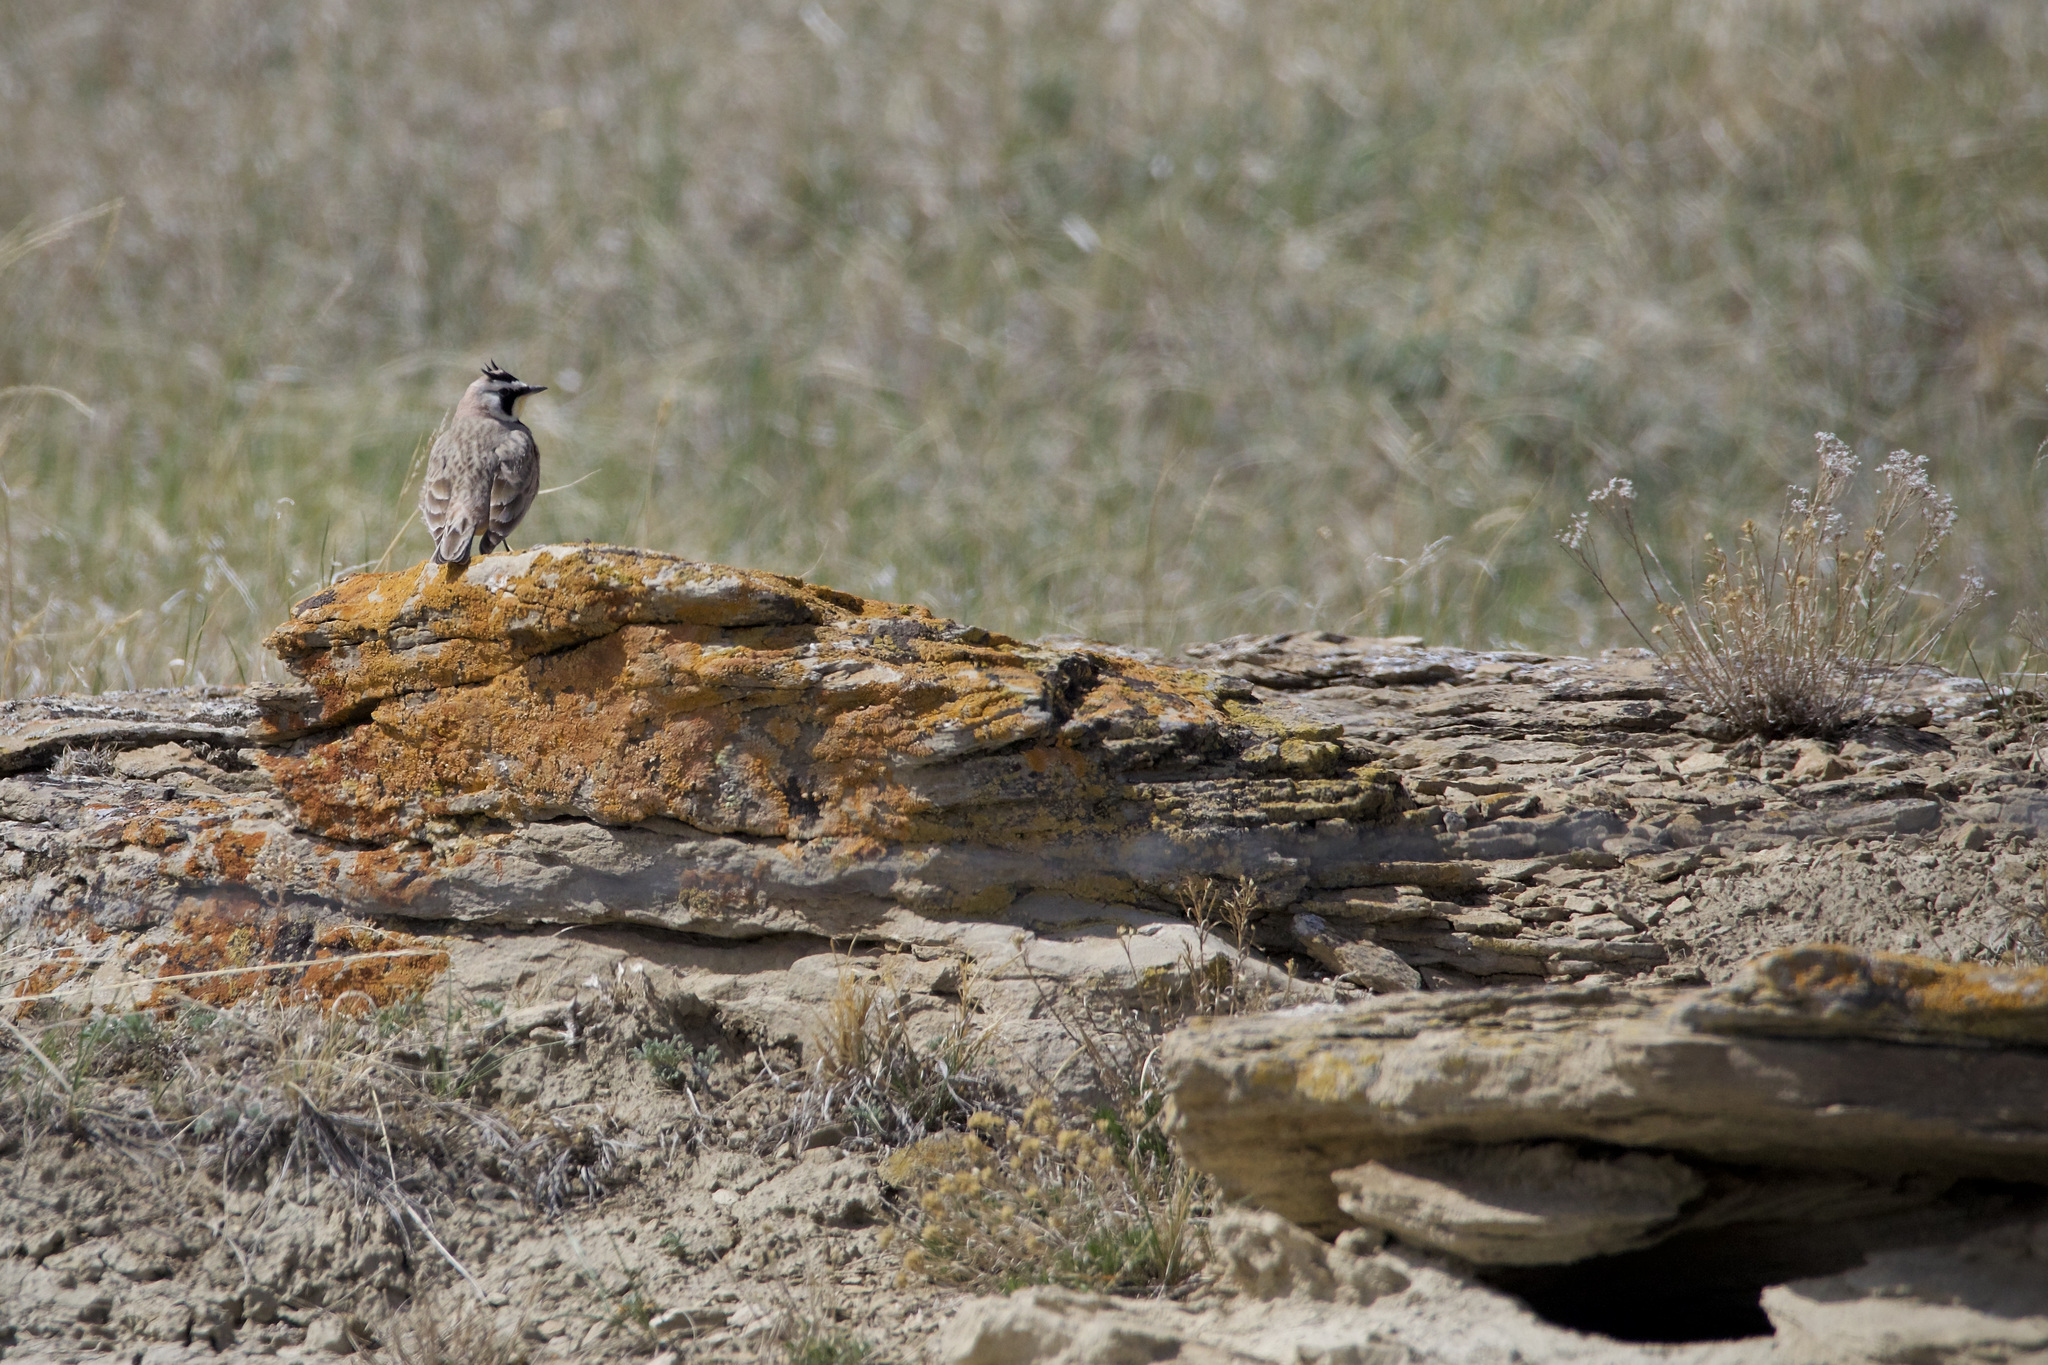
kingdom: Animalia
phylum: Chordata
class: Aves
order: Passeriformes
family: Alaudidae
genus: Eremophila
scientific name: Eremophila alpestris
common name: Horned lark
